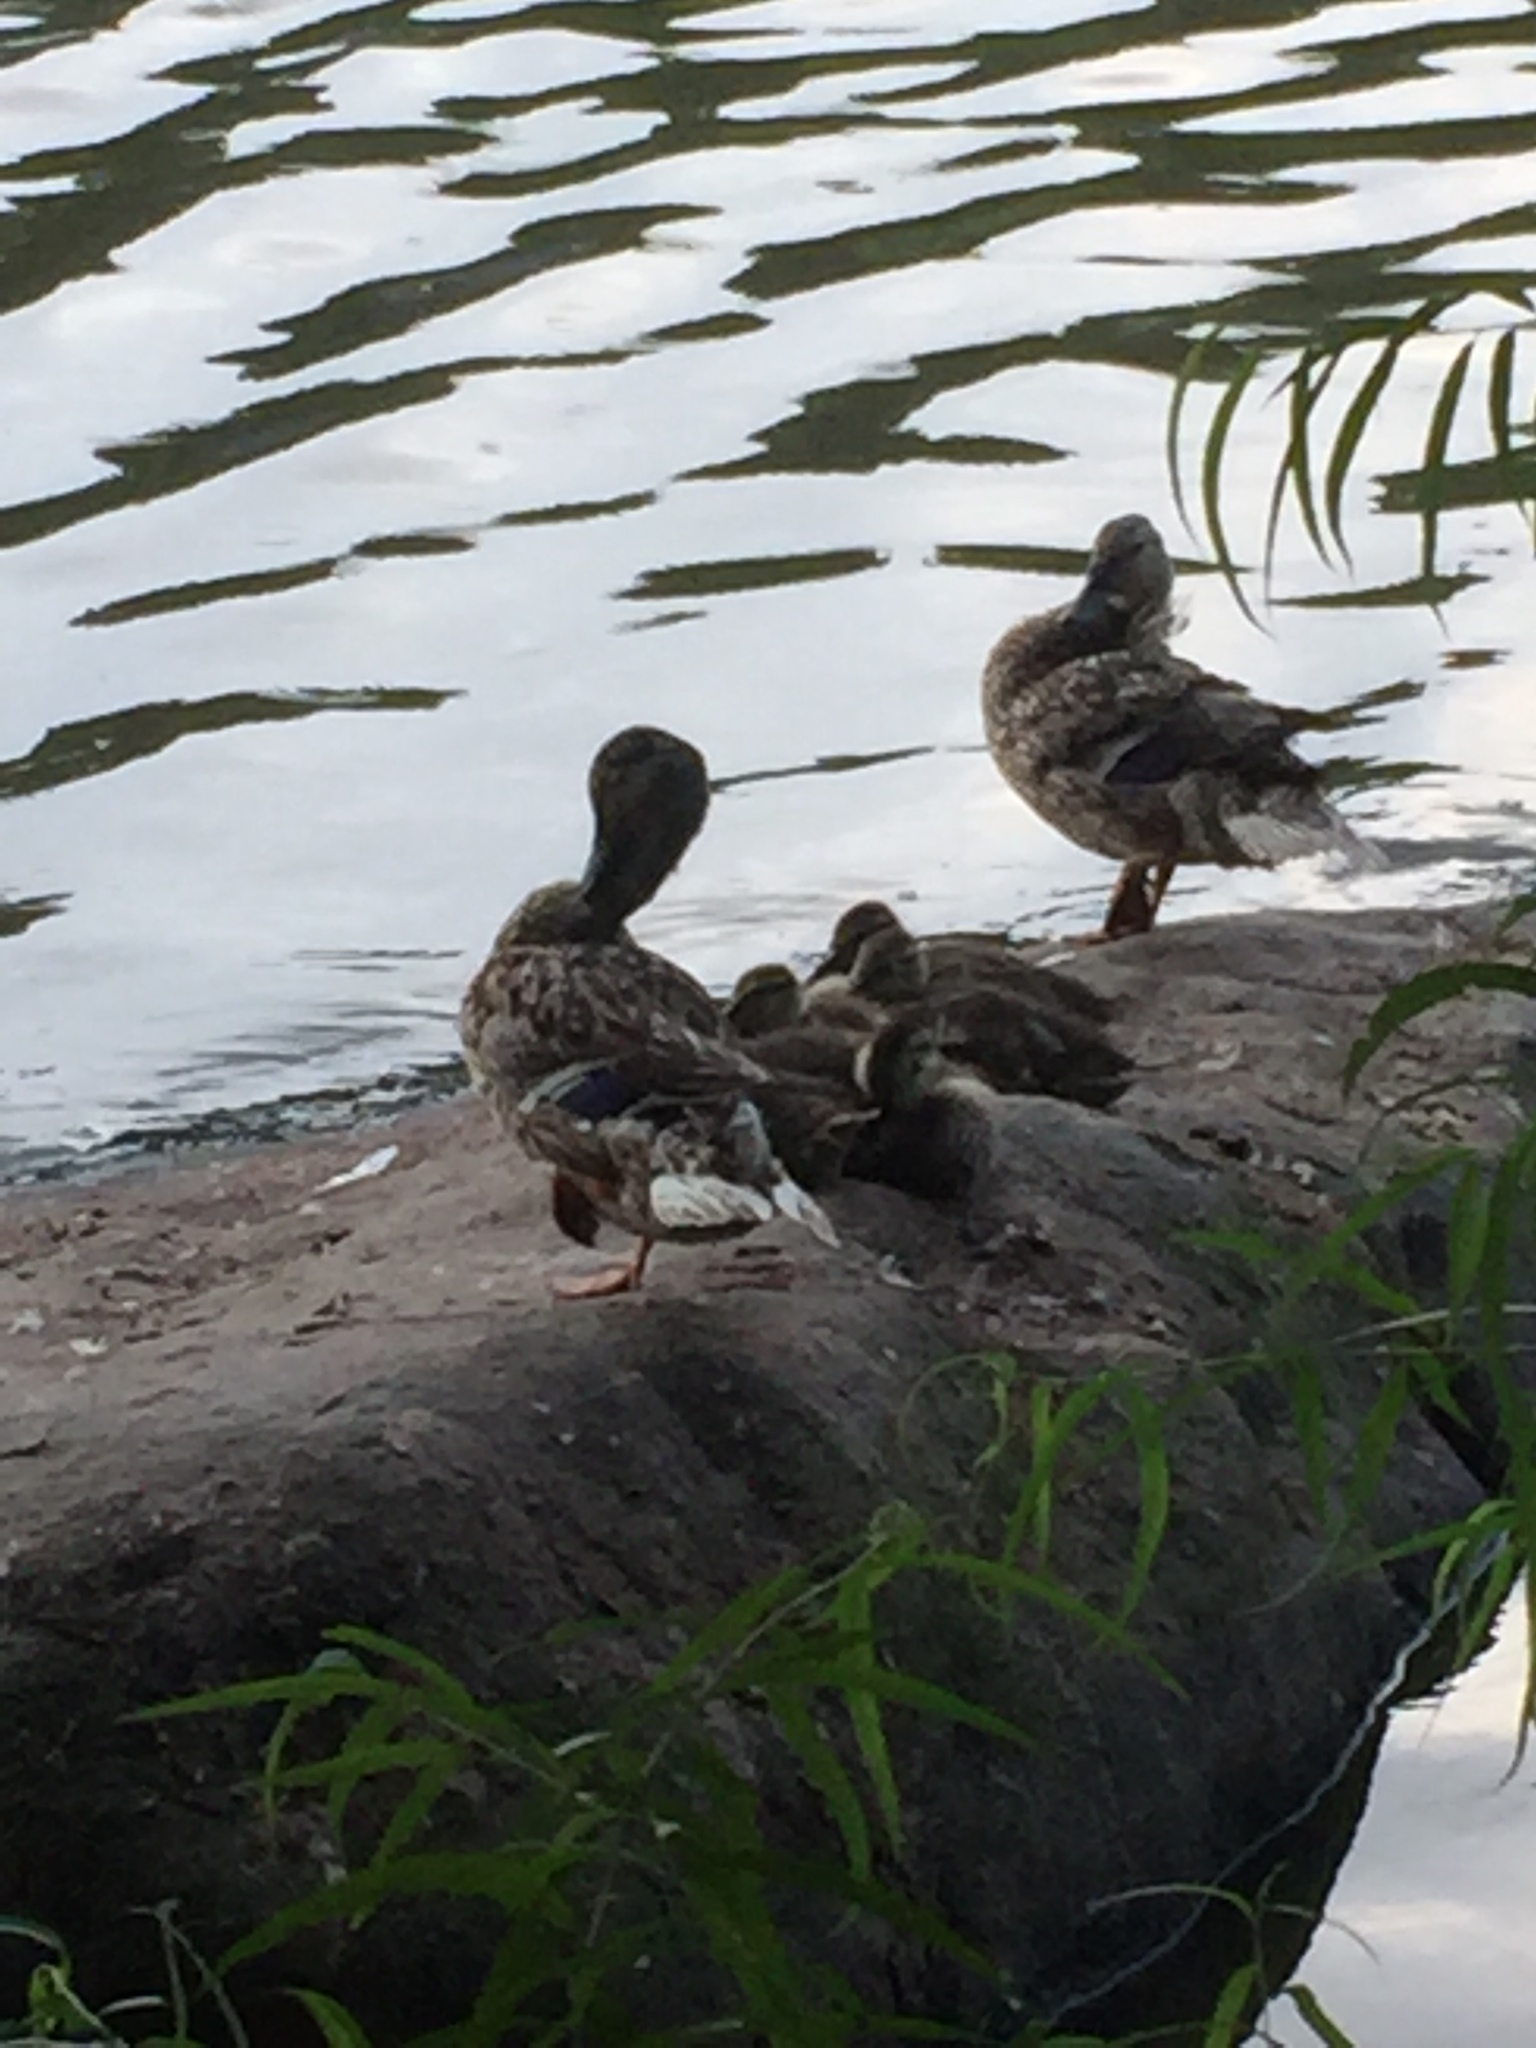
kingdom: Animalia
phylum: Chordata
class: Aves
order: Anseriformes
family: Anatidae
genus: Anas
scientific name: Anas platyrhynchos
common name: Mallard
